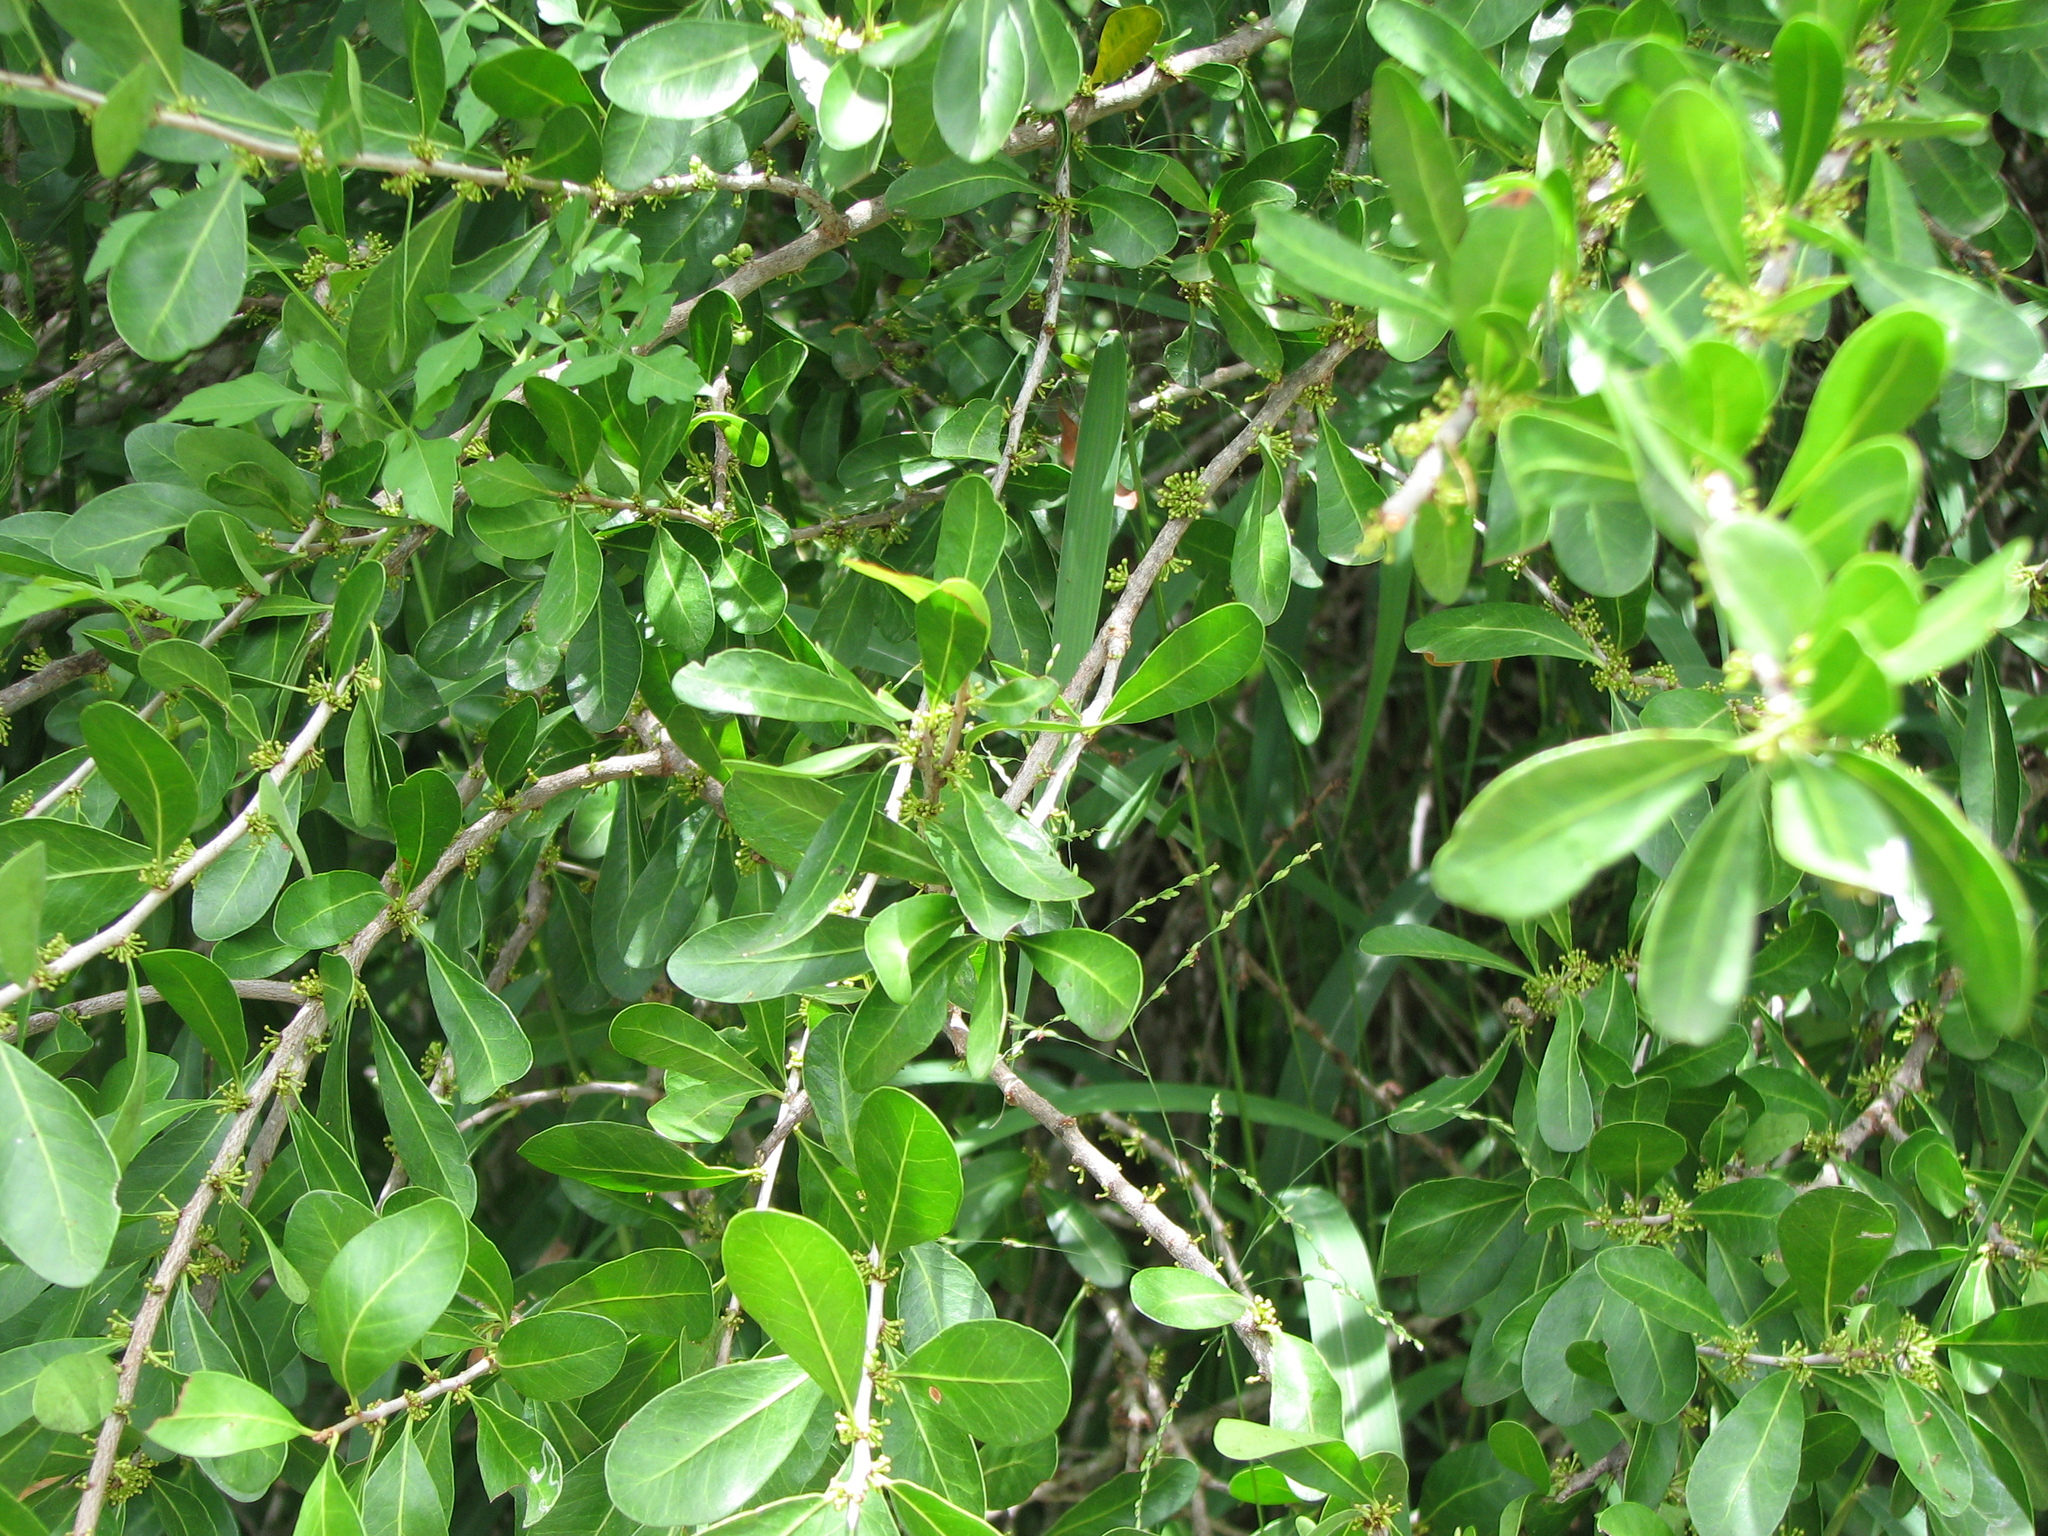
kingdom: Plantae
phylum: Tracheophyta
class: Magnoliopsida
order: Ericales
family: Sapotaceae
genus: Sideroxylon
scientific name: Sideroxylon celastrinum
